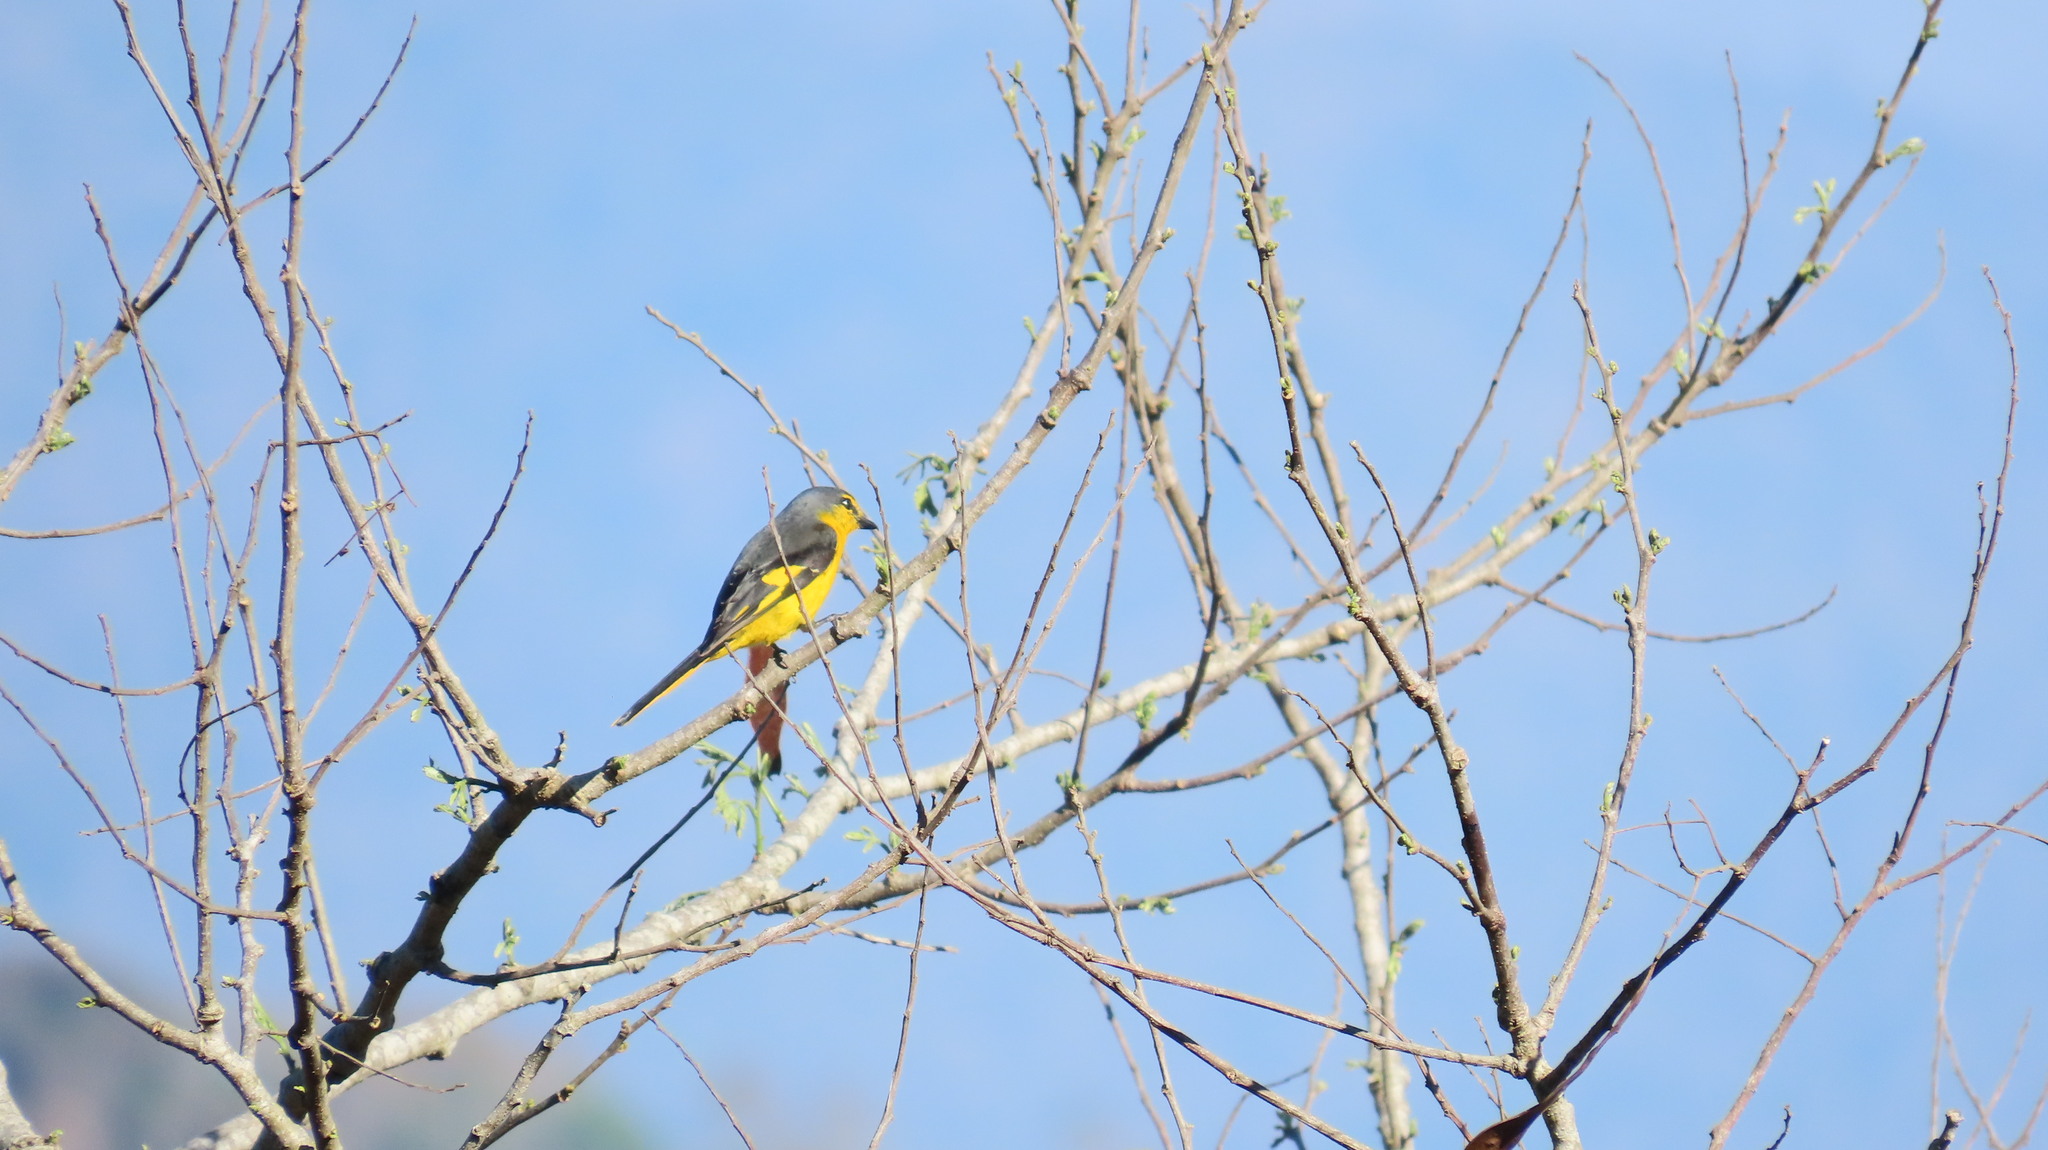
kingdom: Animalia
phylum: Chordata
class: Aves
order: Passeriformes
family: Campephagidae
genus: Pericrocotus
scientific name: Pericrocotus flammeus
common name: Orange minivet
